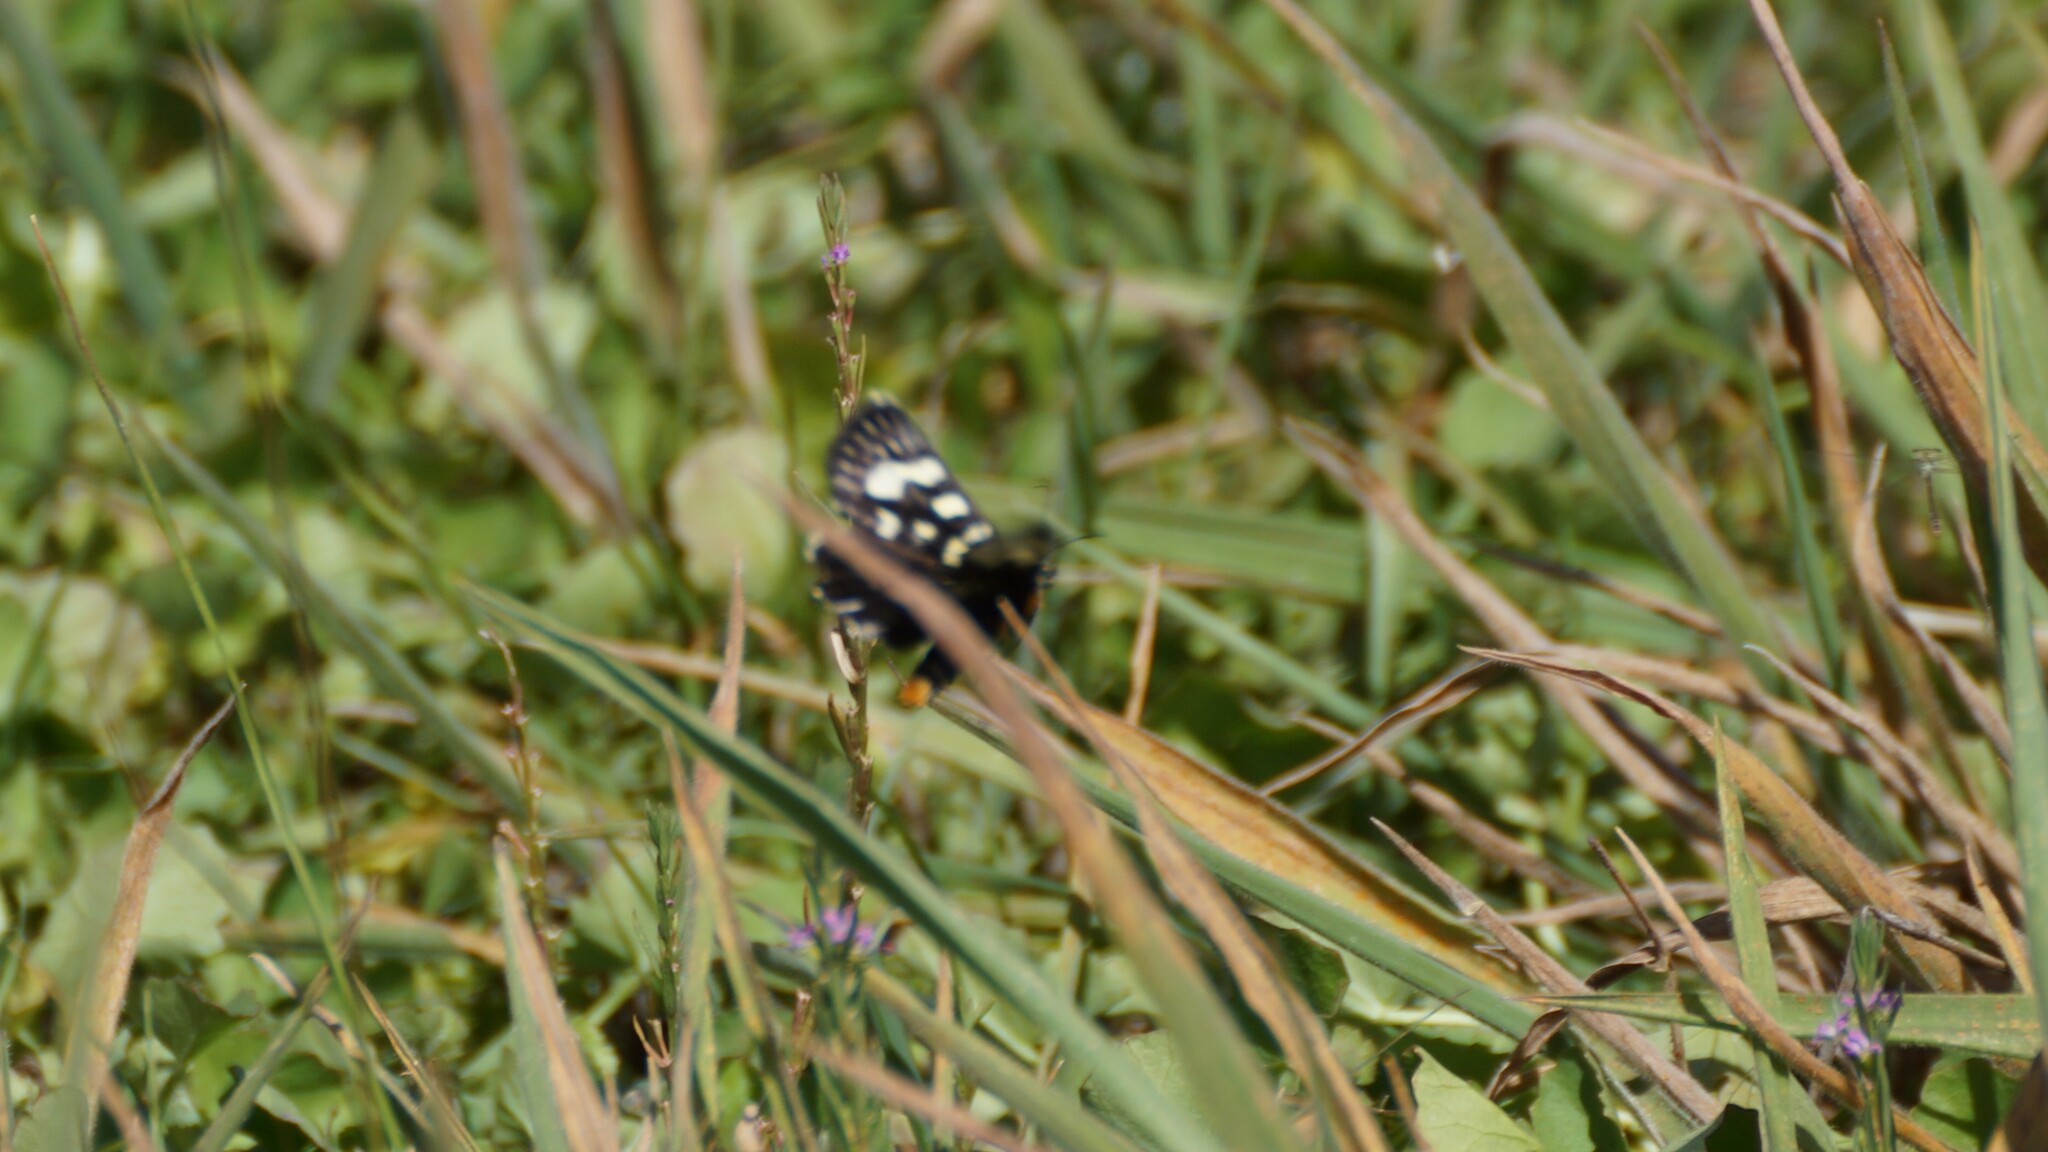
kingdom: Animalia
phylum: Arthropoda
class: Insecta
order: Lepidoptera
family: Noctuidae
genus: Phalaenoides
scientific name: Phalaenoides tristifica
